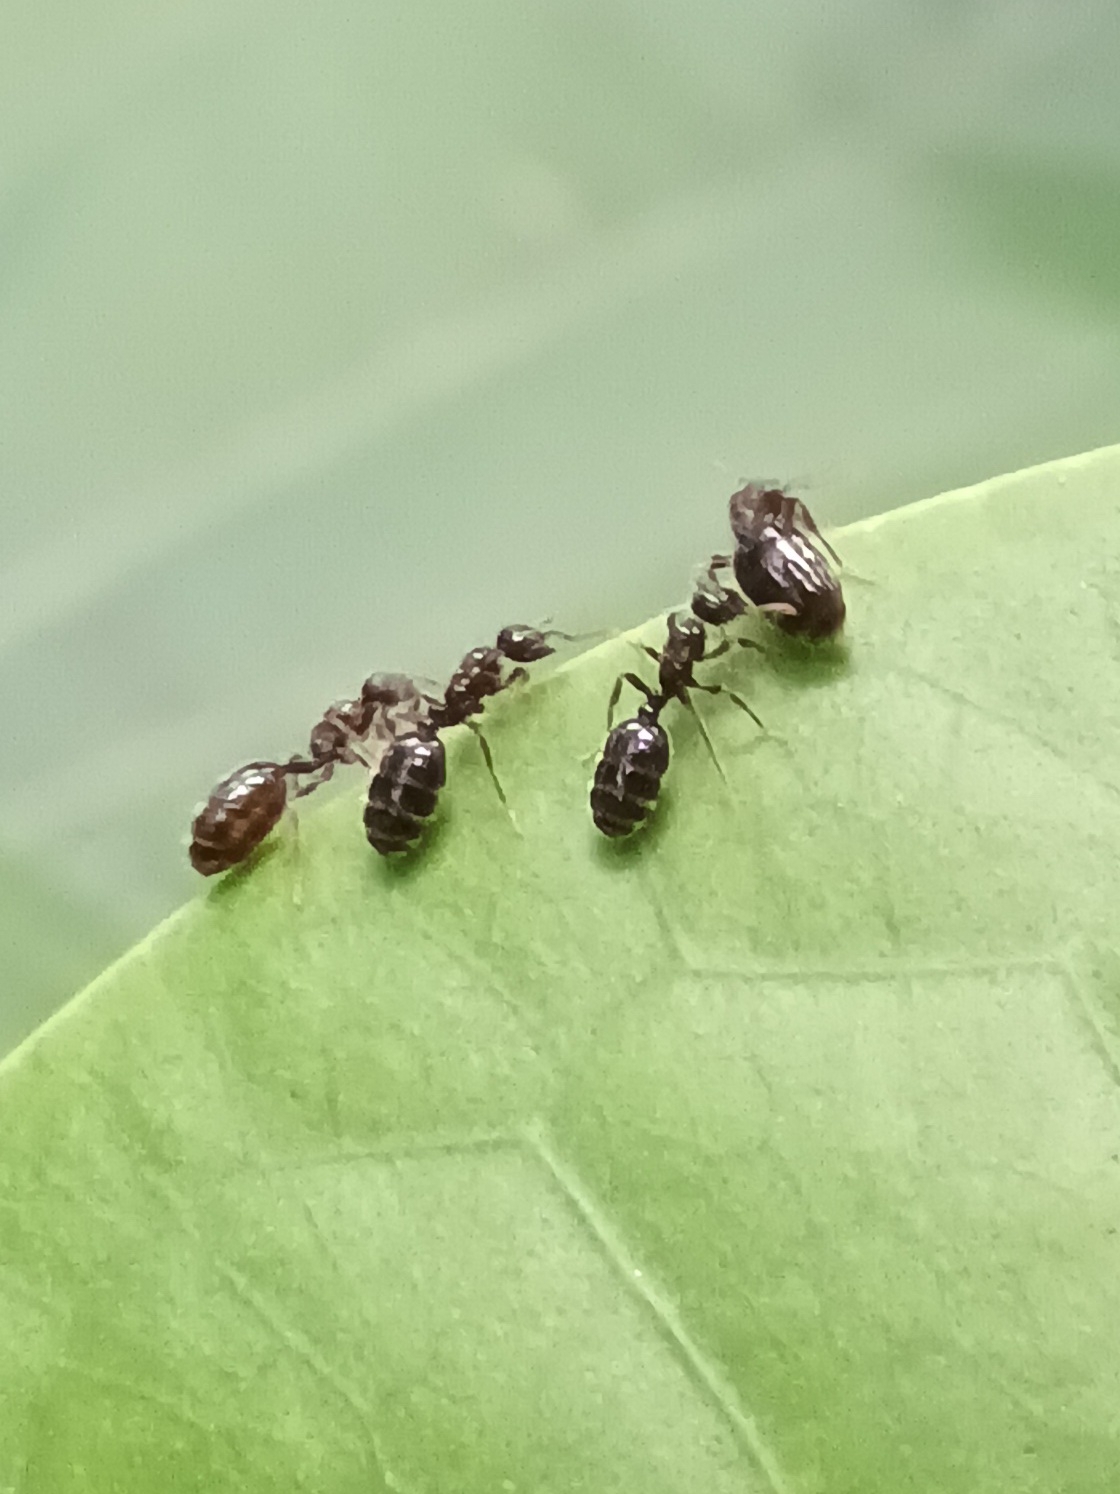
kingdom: Animalia
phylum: Arthropoda
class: Insecta
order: Hymenoptera
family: Formicidae
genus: Monomorium
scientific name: Monomorium carbonarium
